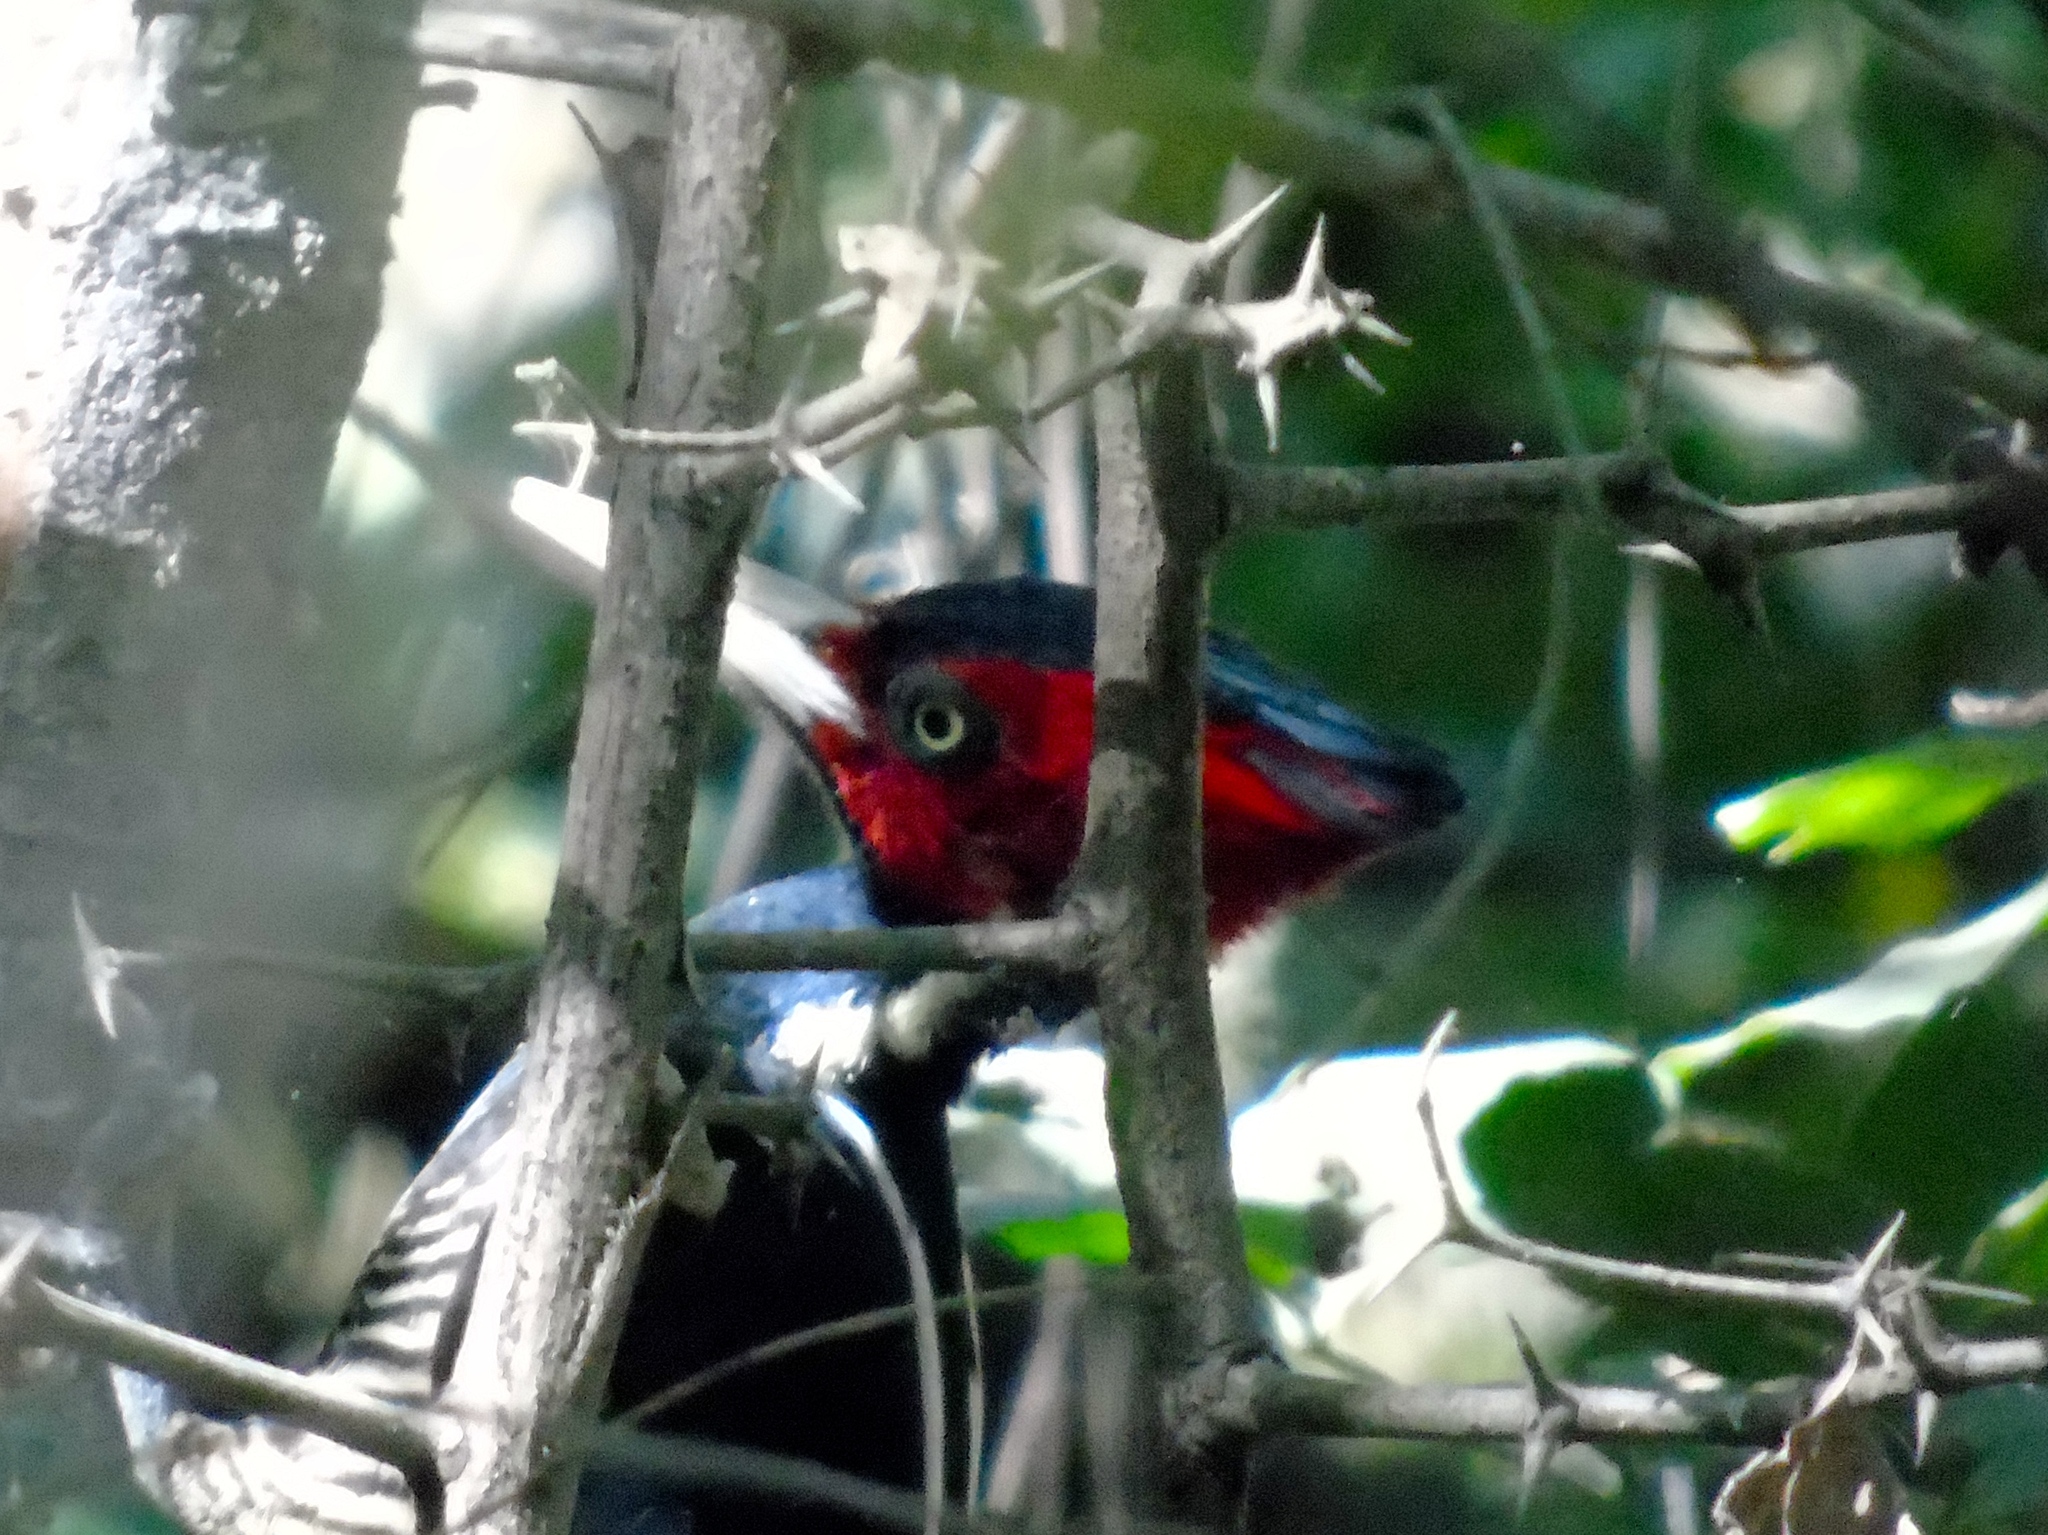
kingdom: Animalia
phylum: Chordata
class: Aves
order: Piciformes
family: Picidae
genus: Campephilus
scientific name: Campephilus guatemalensis
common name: Pale-billed woodpecker
